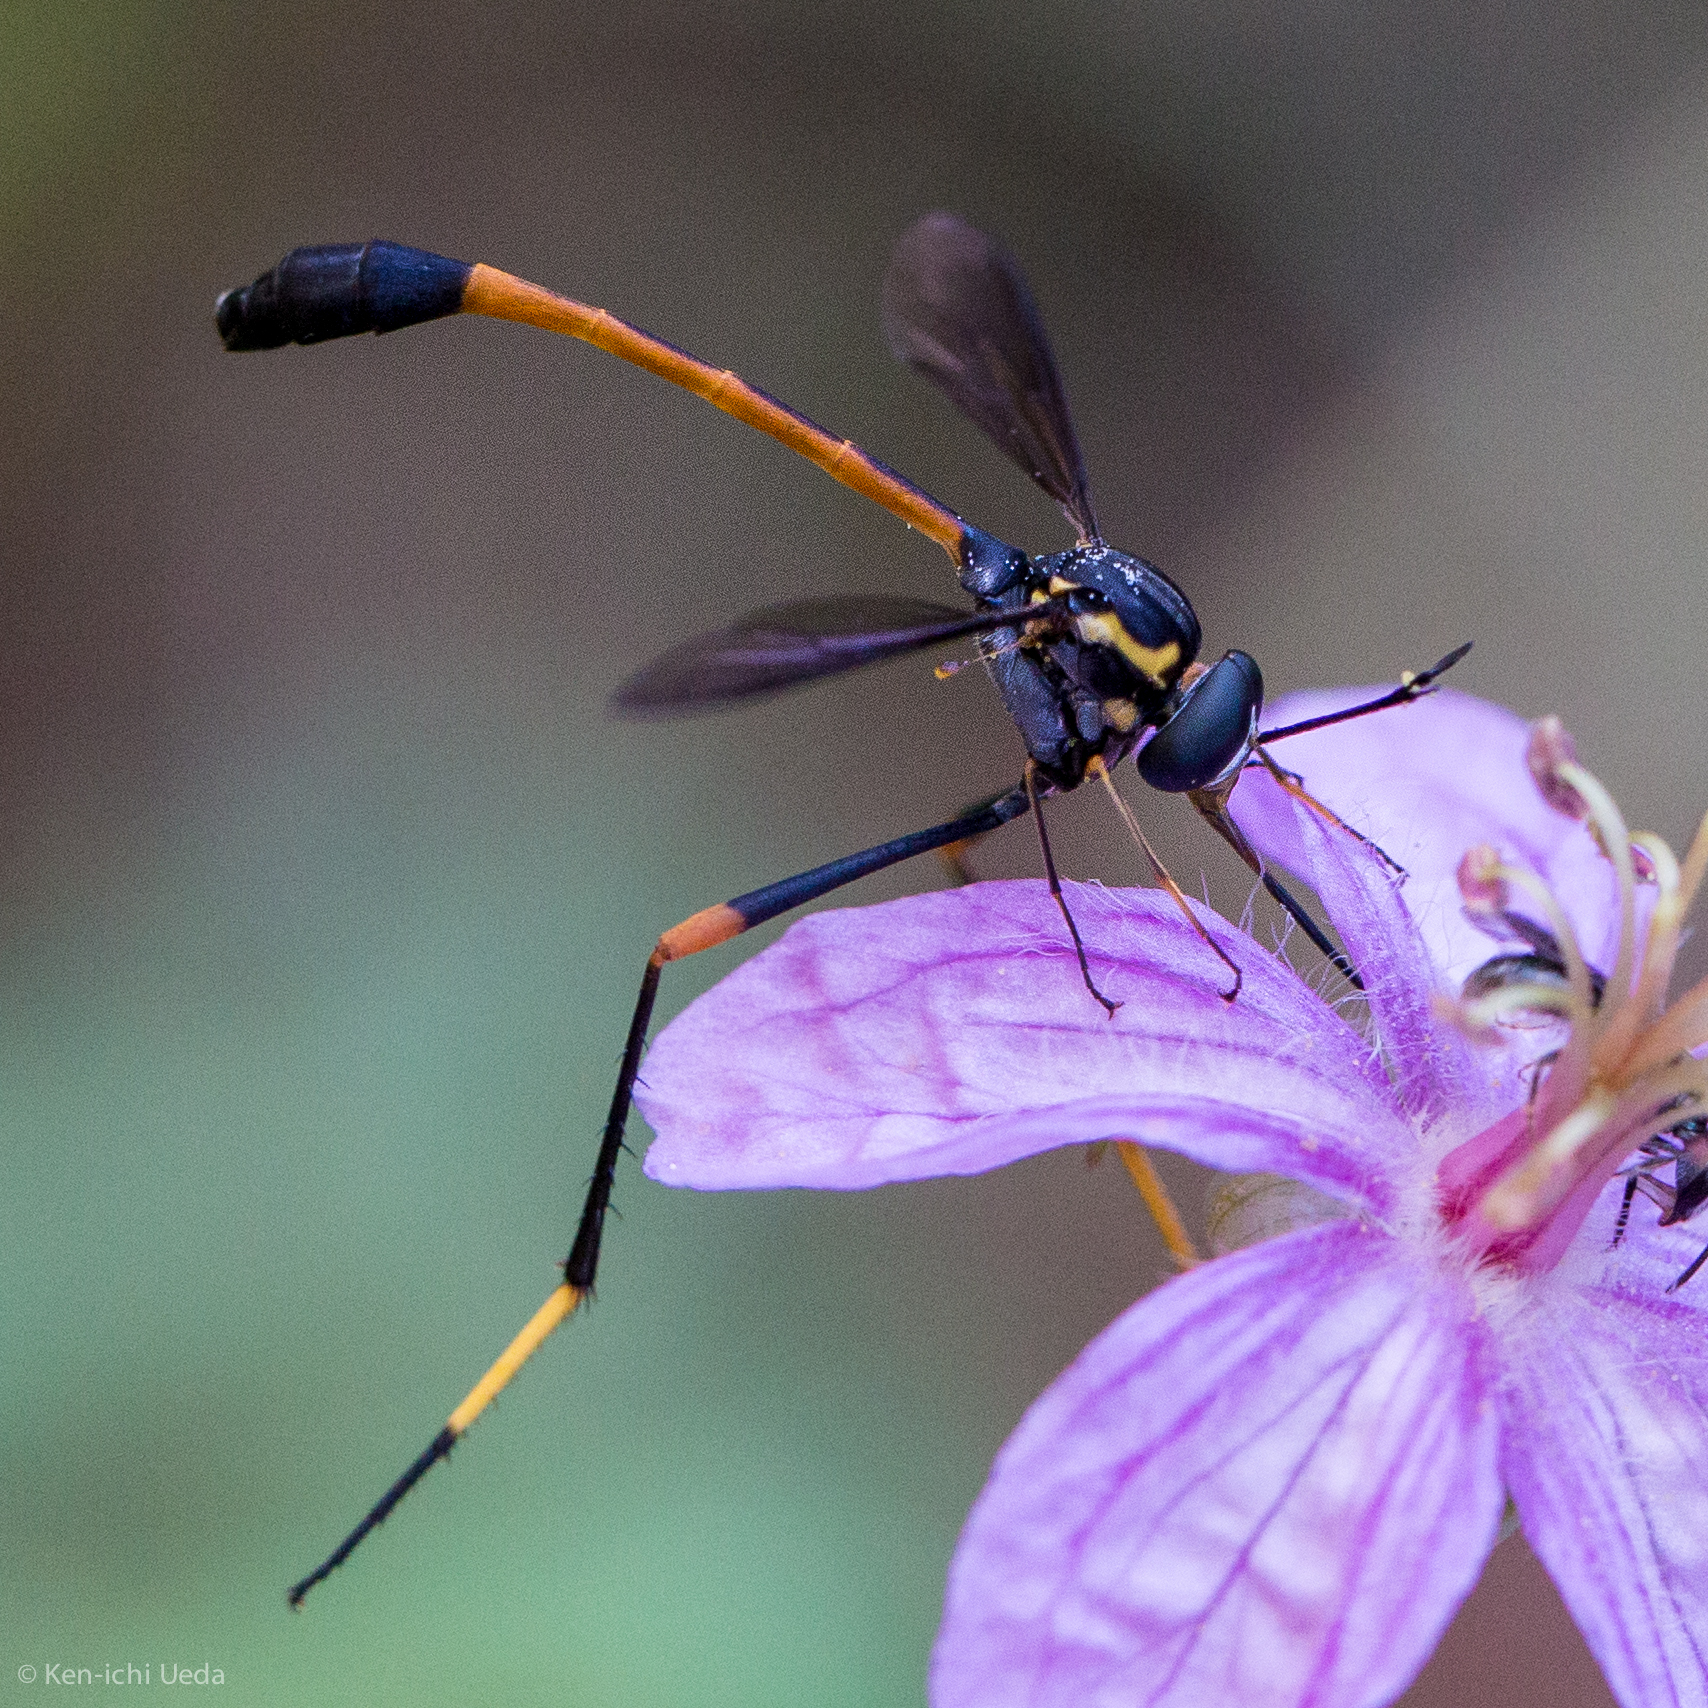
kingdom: Animalia
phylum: Arthropoda
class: Insecta
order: Diptera
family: Bombyliidae
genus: Systropus
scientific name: Systropus arizonicus
